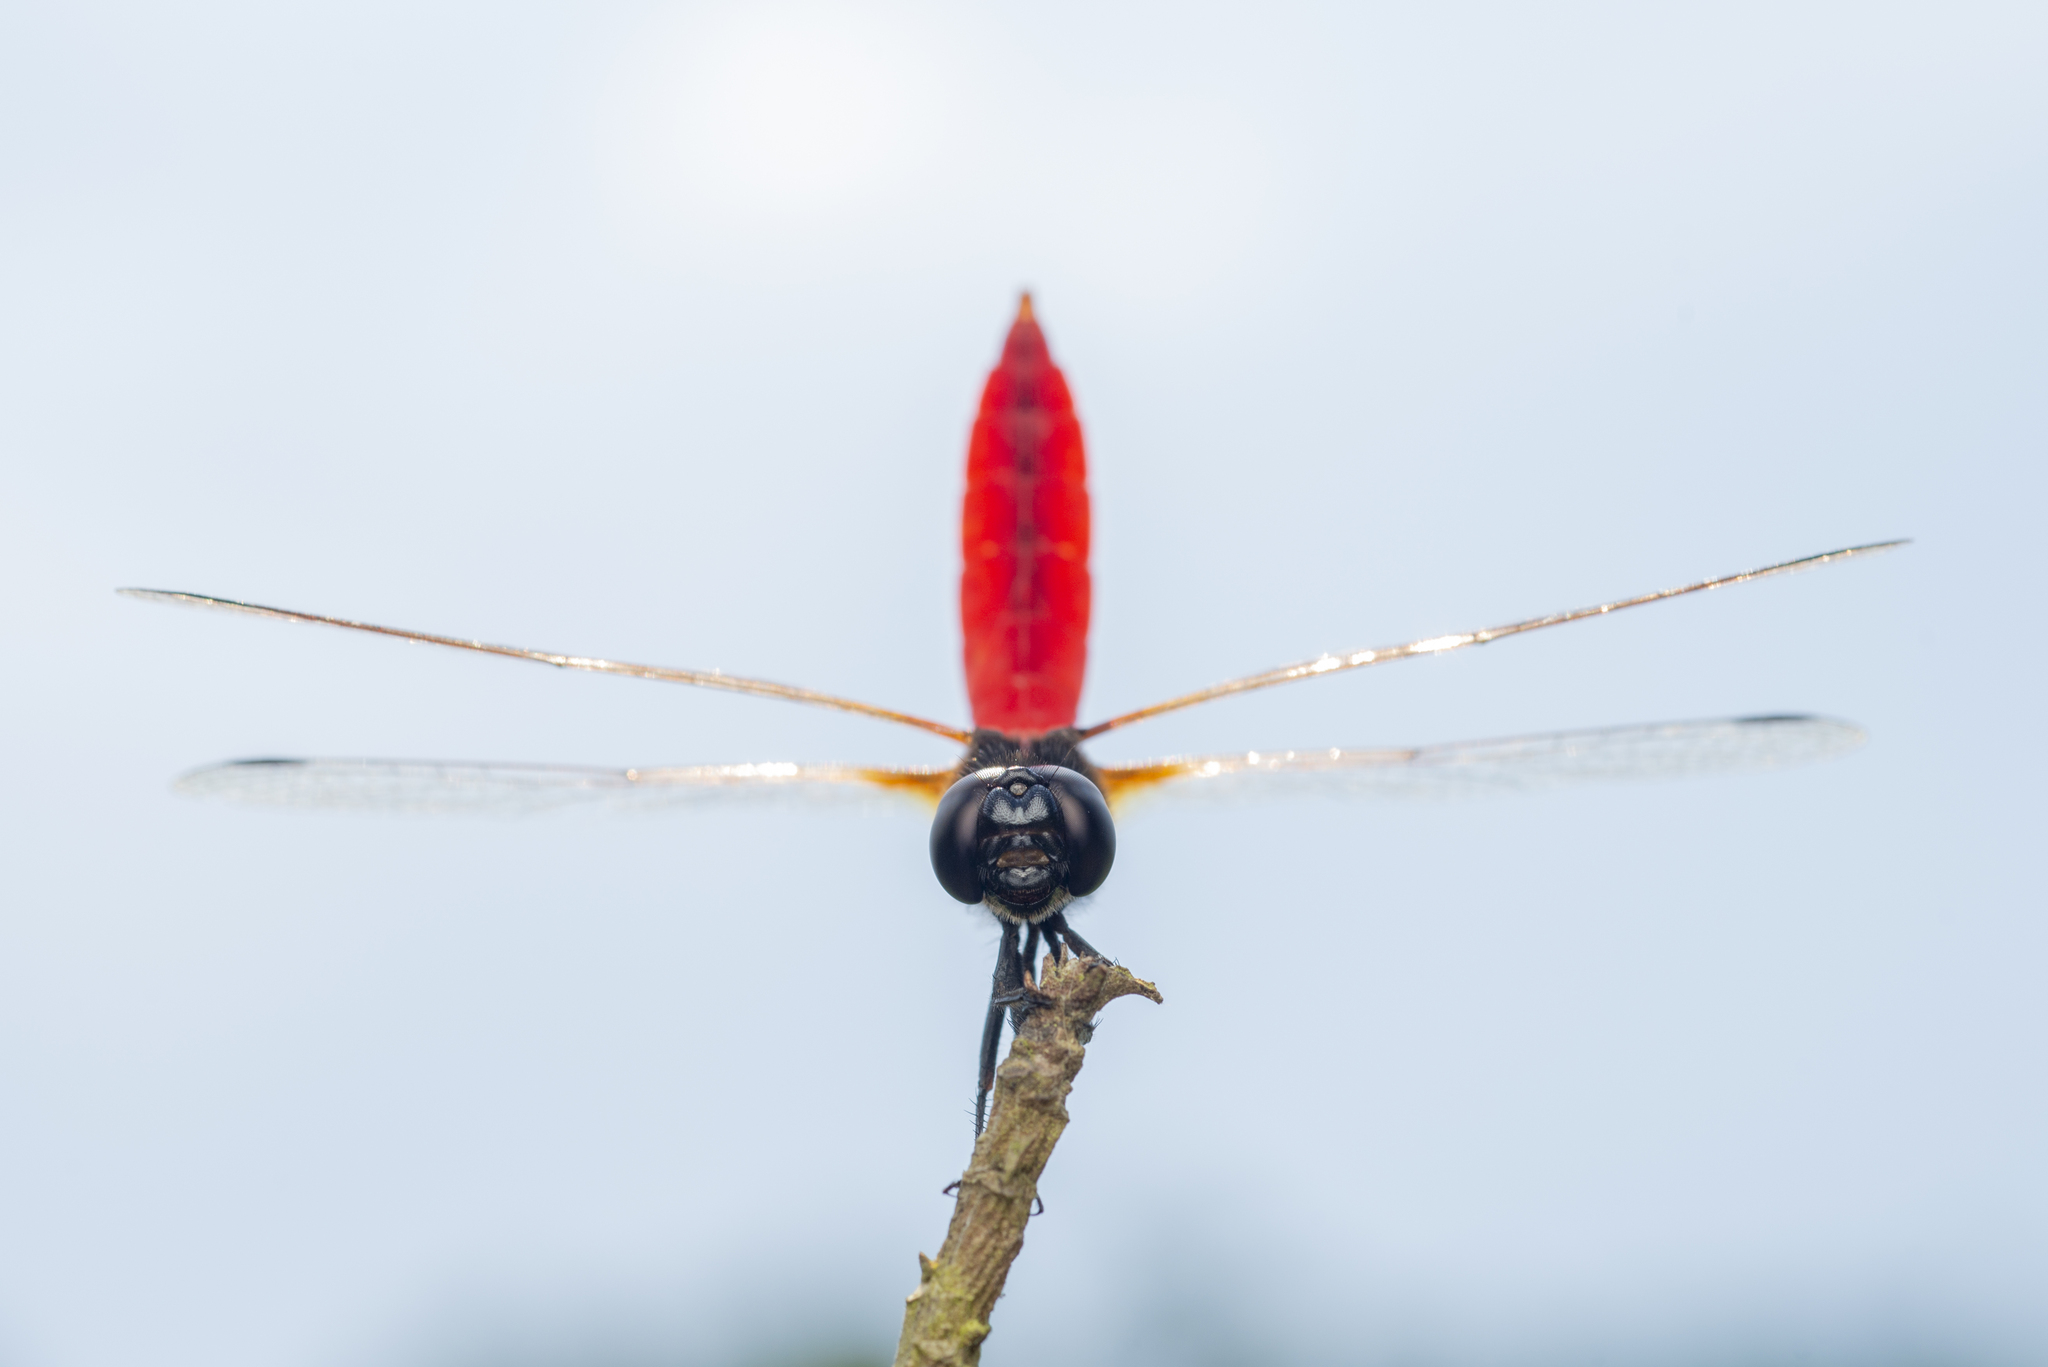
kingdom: Animalia
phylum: Arthropoda
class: Insecta
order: Odonata
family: Libellulidae
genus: Aethriamanta
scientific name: Aethriamanta brevipennis
